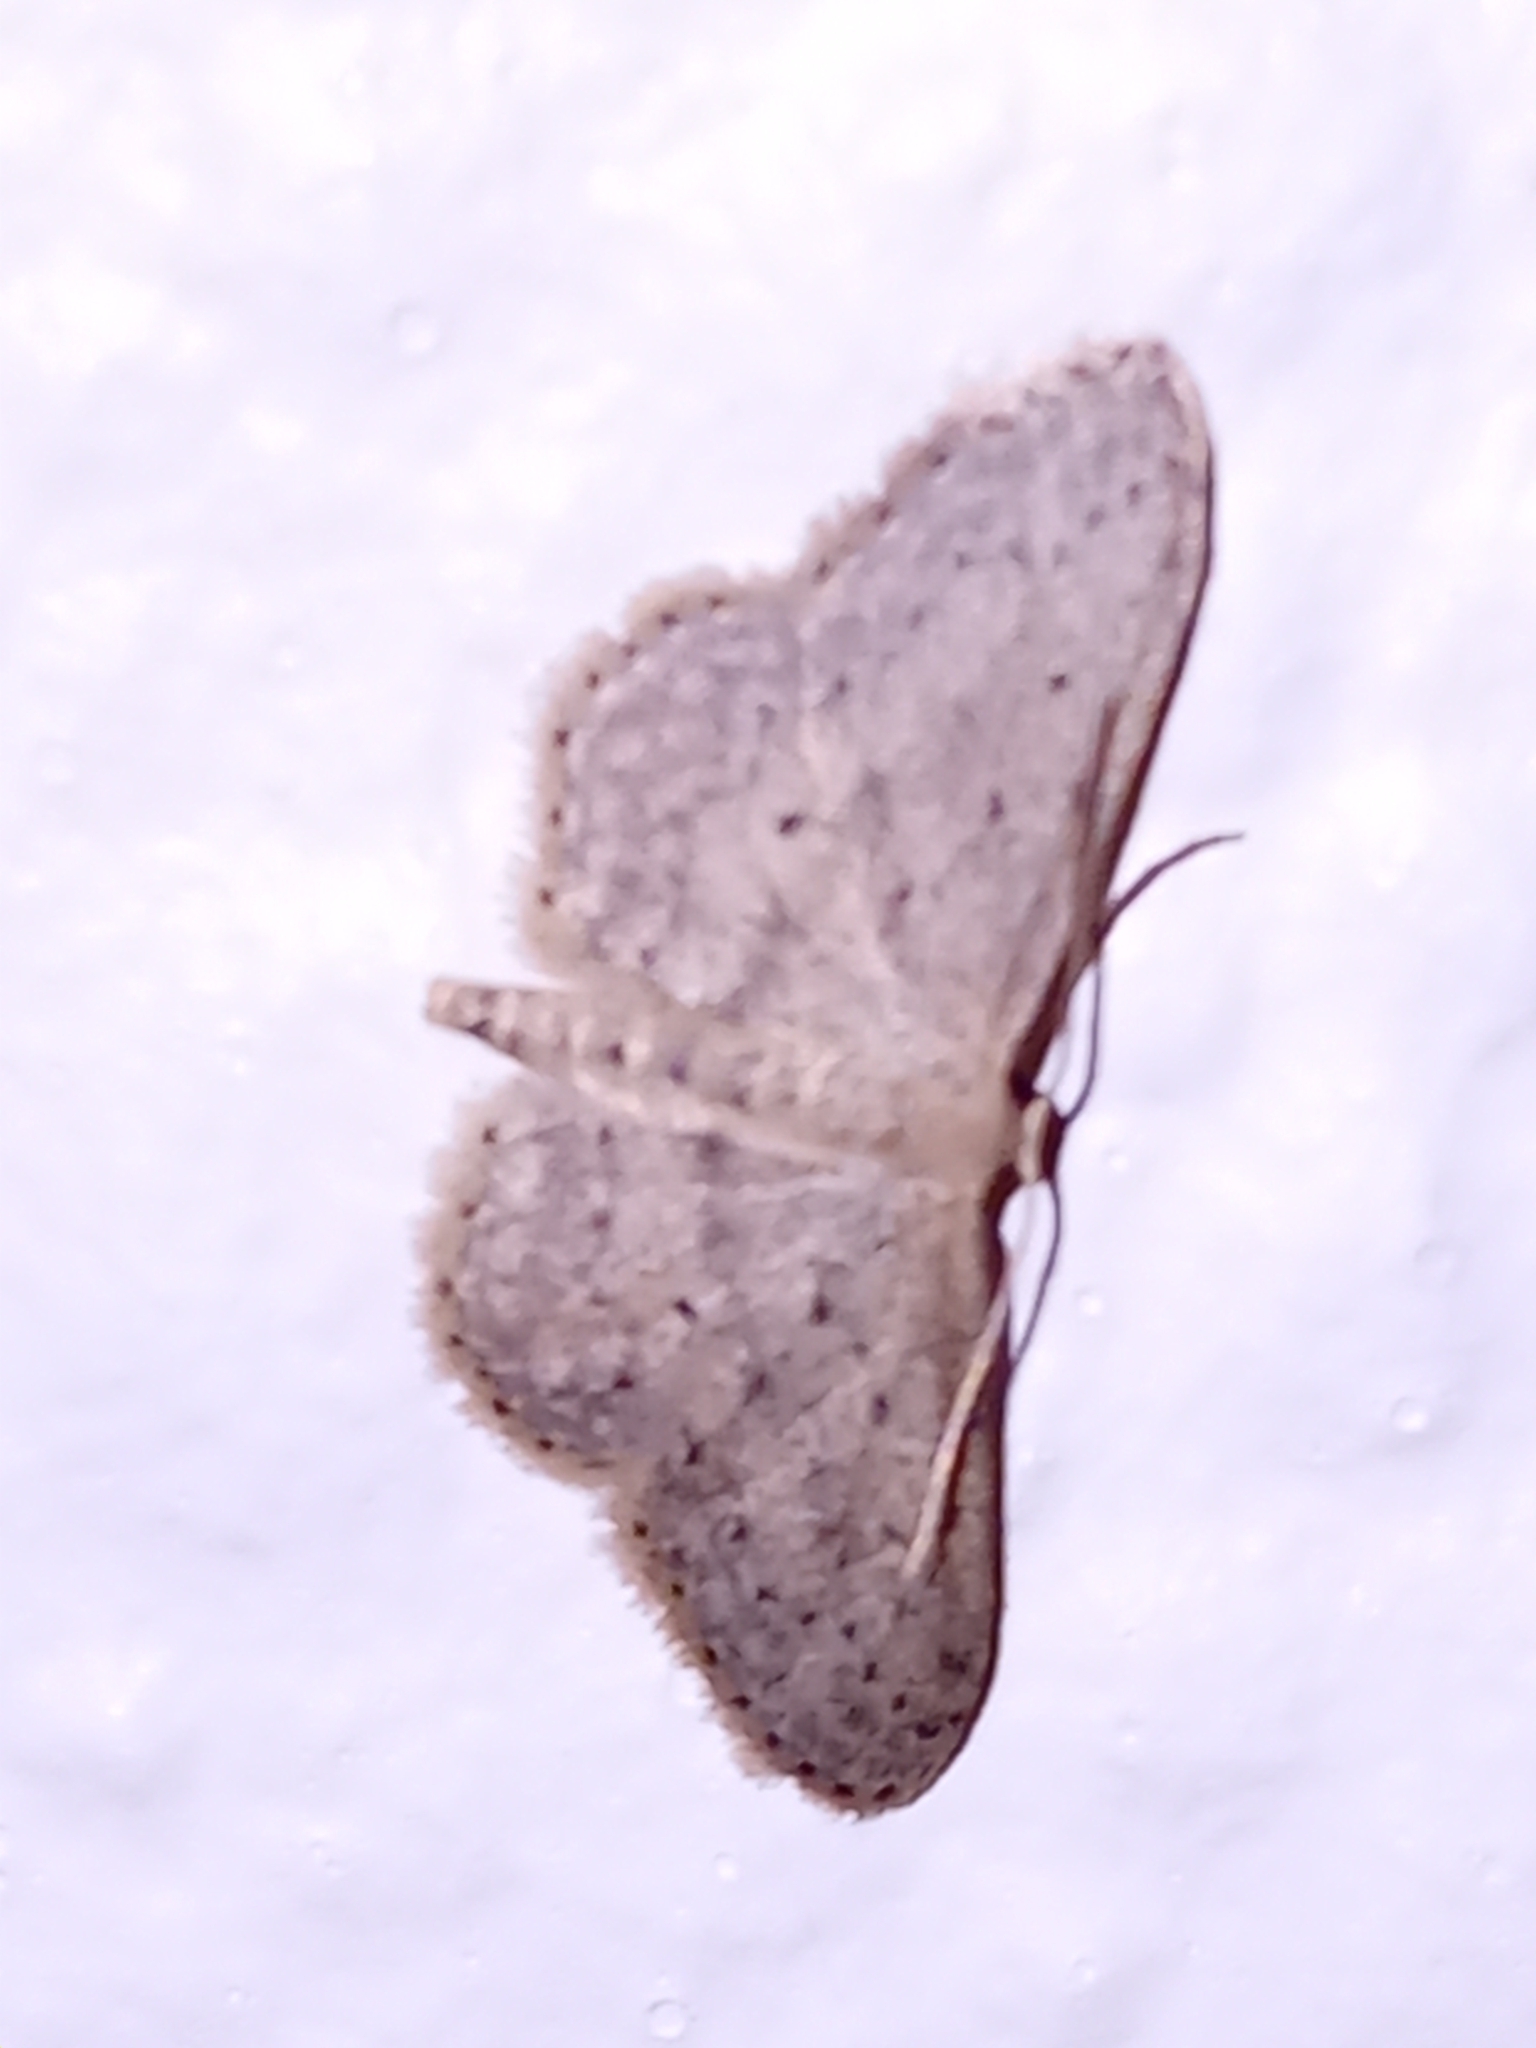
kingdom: Animalia
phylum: Arthropoda
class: Insecta
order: Lepidoptera
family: Geometridae
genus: Idaea
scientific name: Idaea seriata
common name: Small dusty wave
